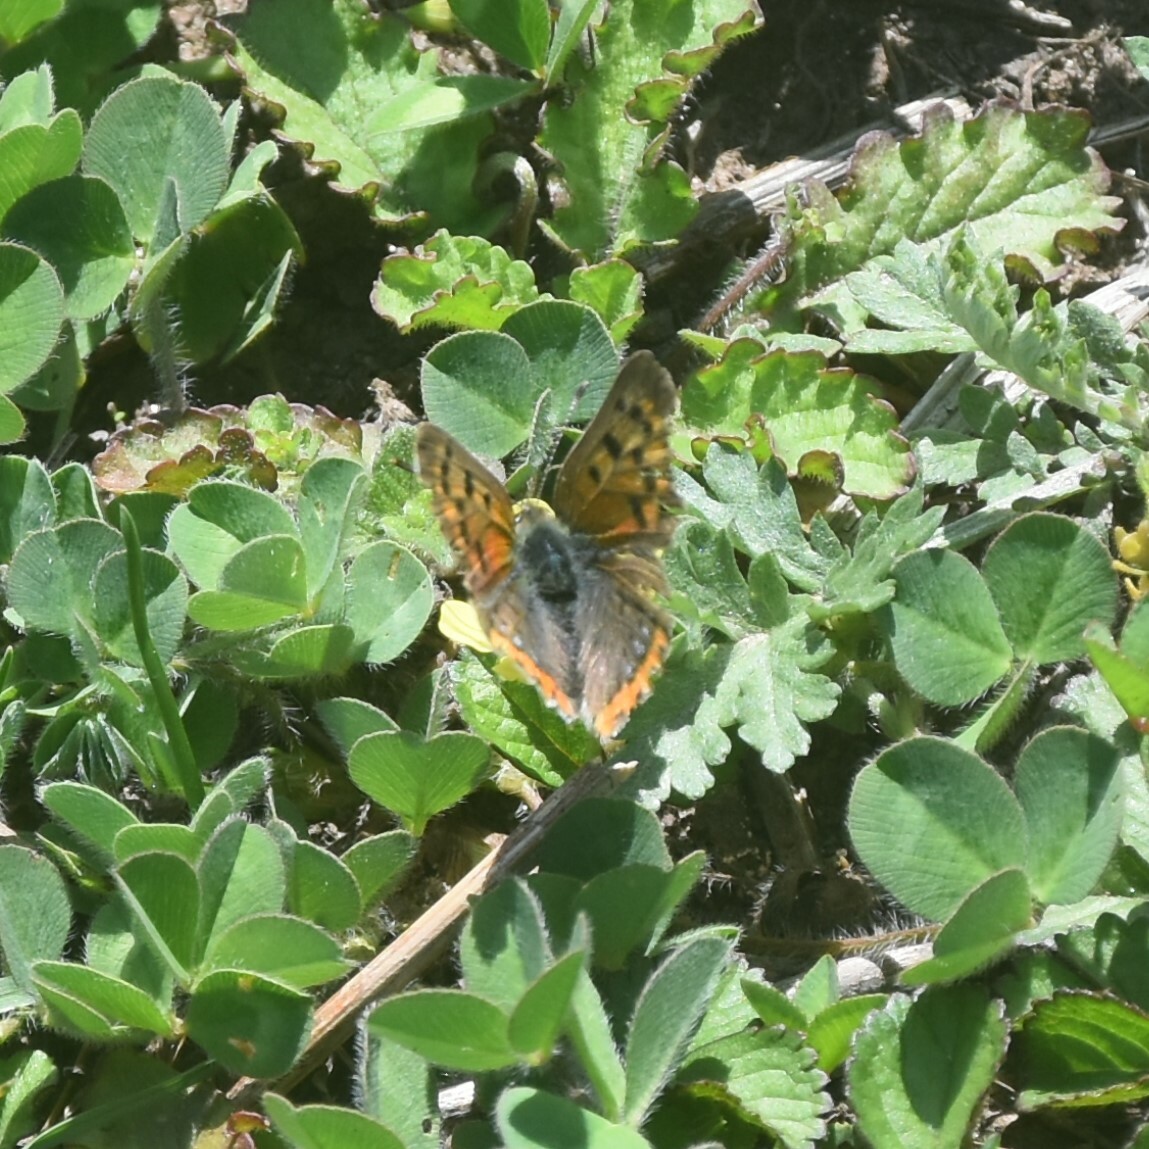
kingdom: Animalia
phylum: Arthropoda
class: Insecta
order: Lepidoptera
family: Lycaenidae
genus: Lycaena
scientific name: Lycaena phlaeas
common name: Small copper
